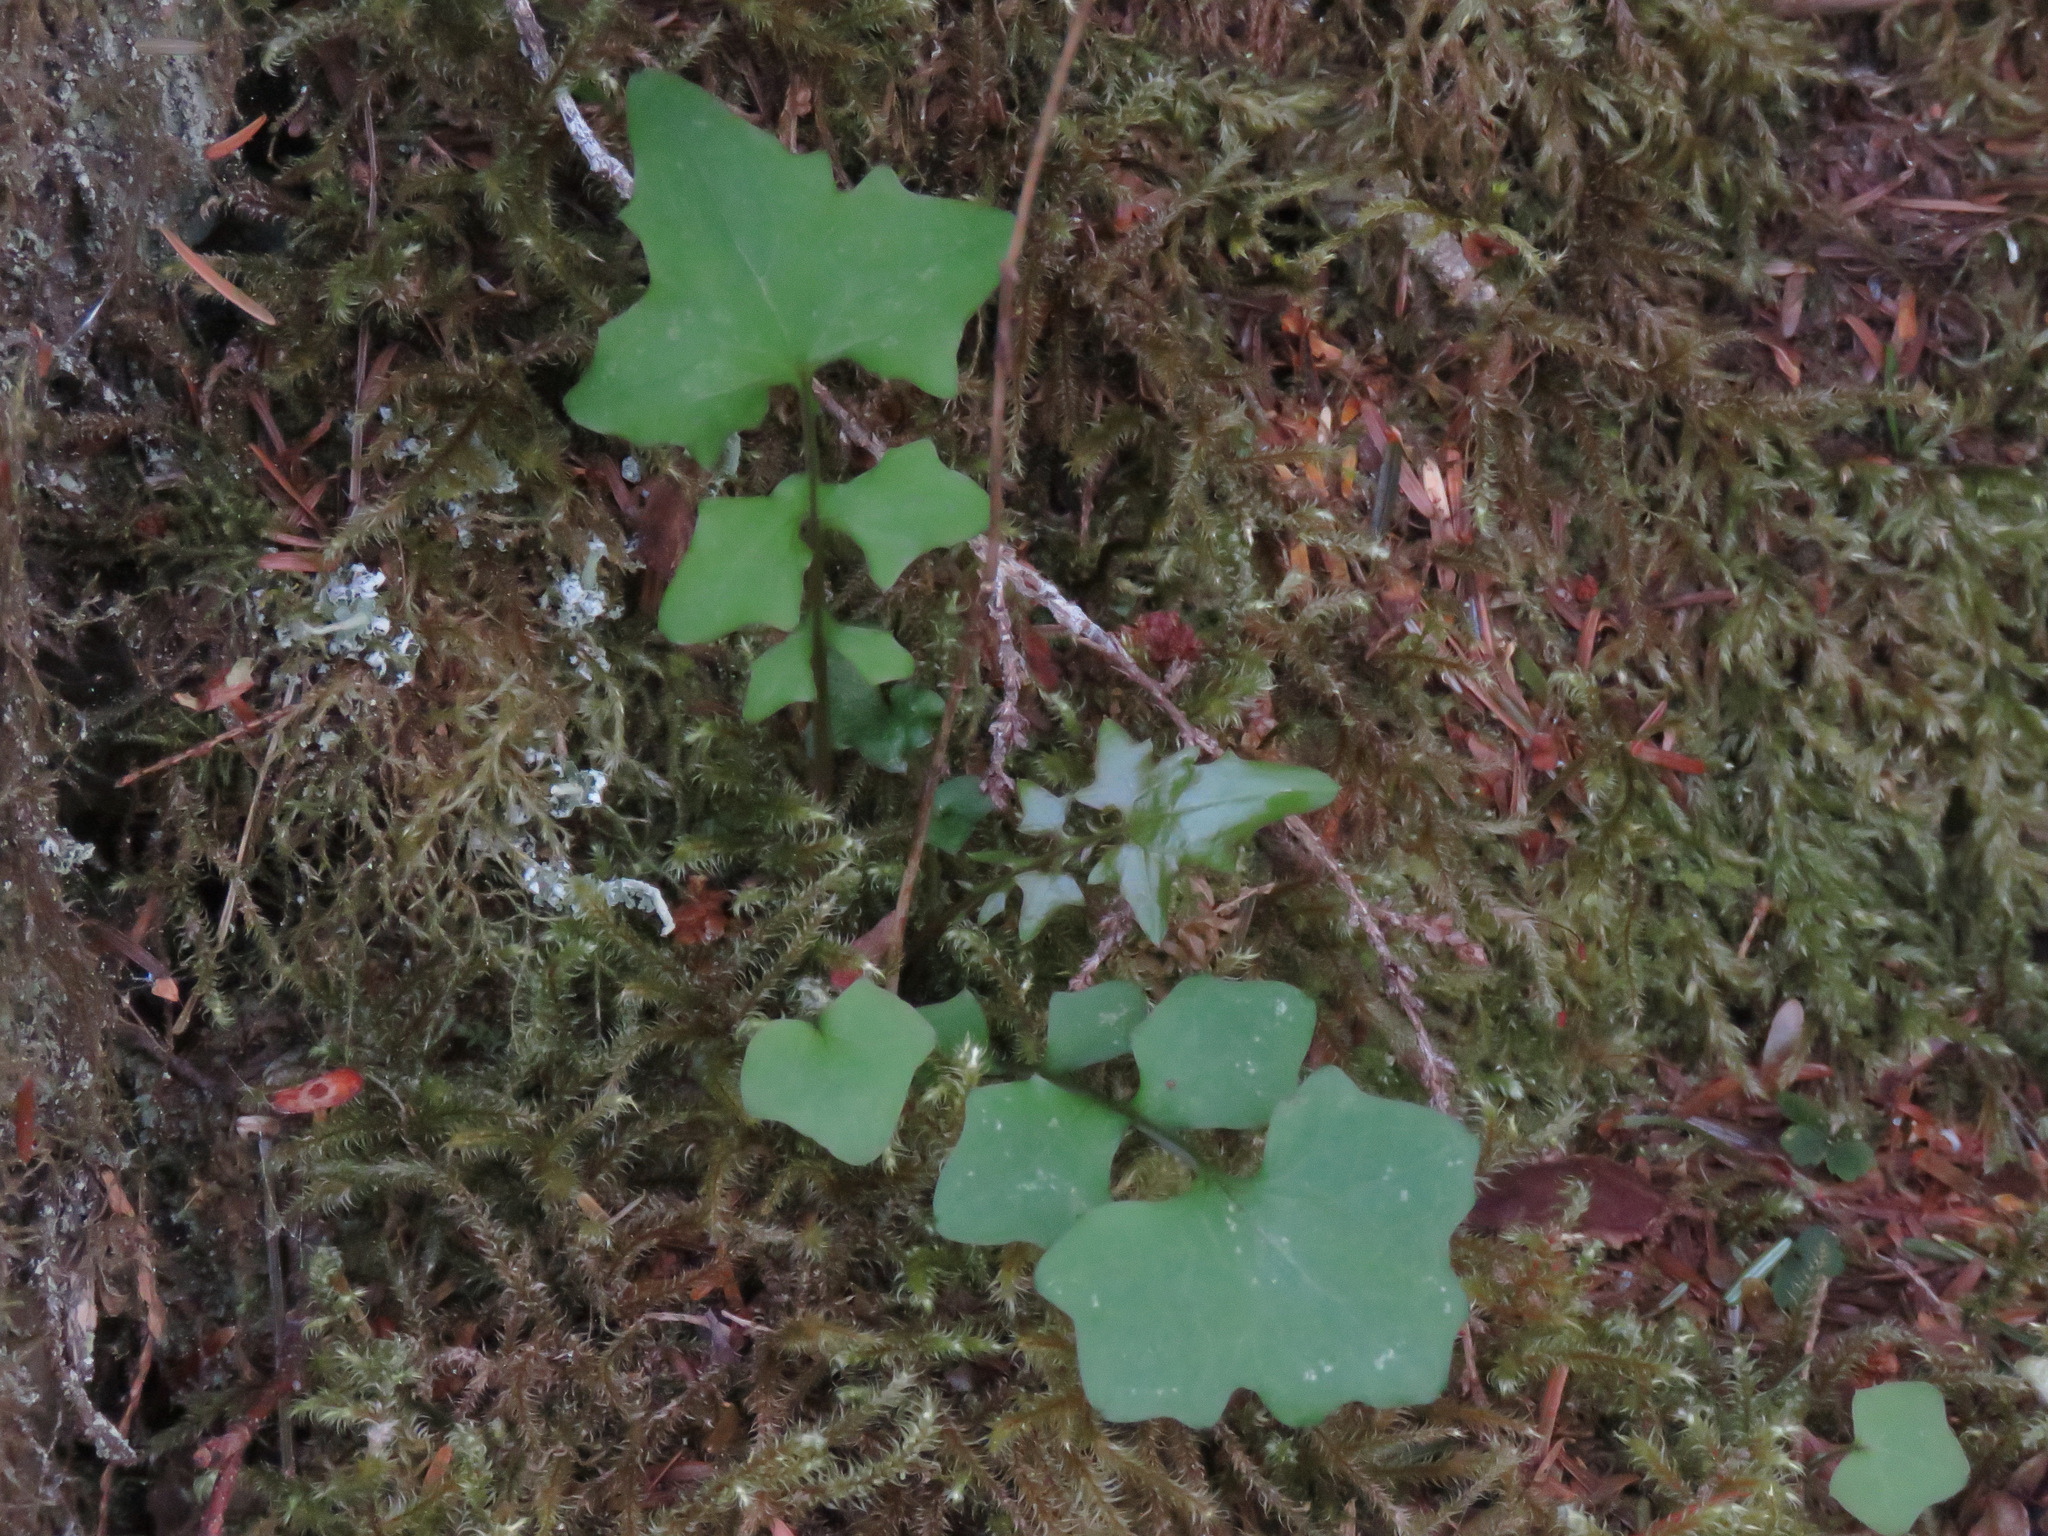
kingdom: Plantae
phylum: Tracheophyta
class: Magnoliopsida
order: Asterales
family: Asteraceae
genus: Mycelis
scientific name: Mycelis muralis
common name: Wall lettuce
